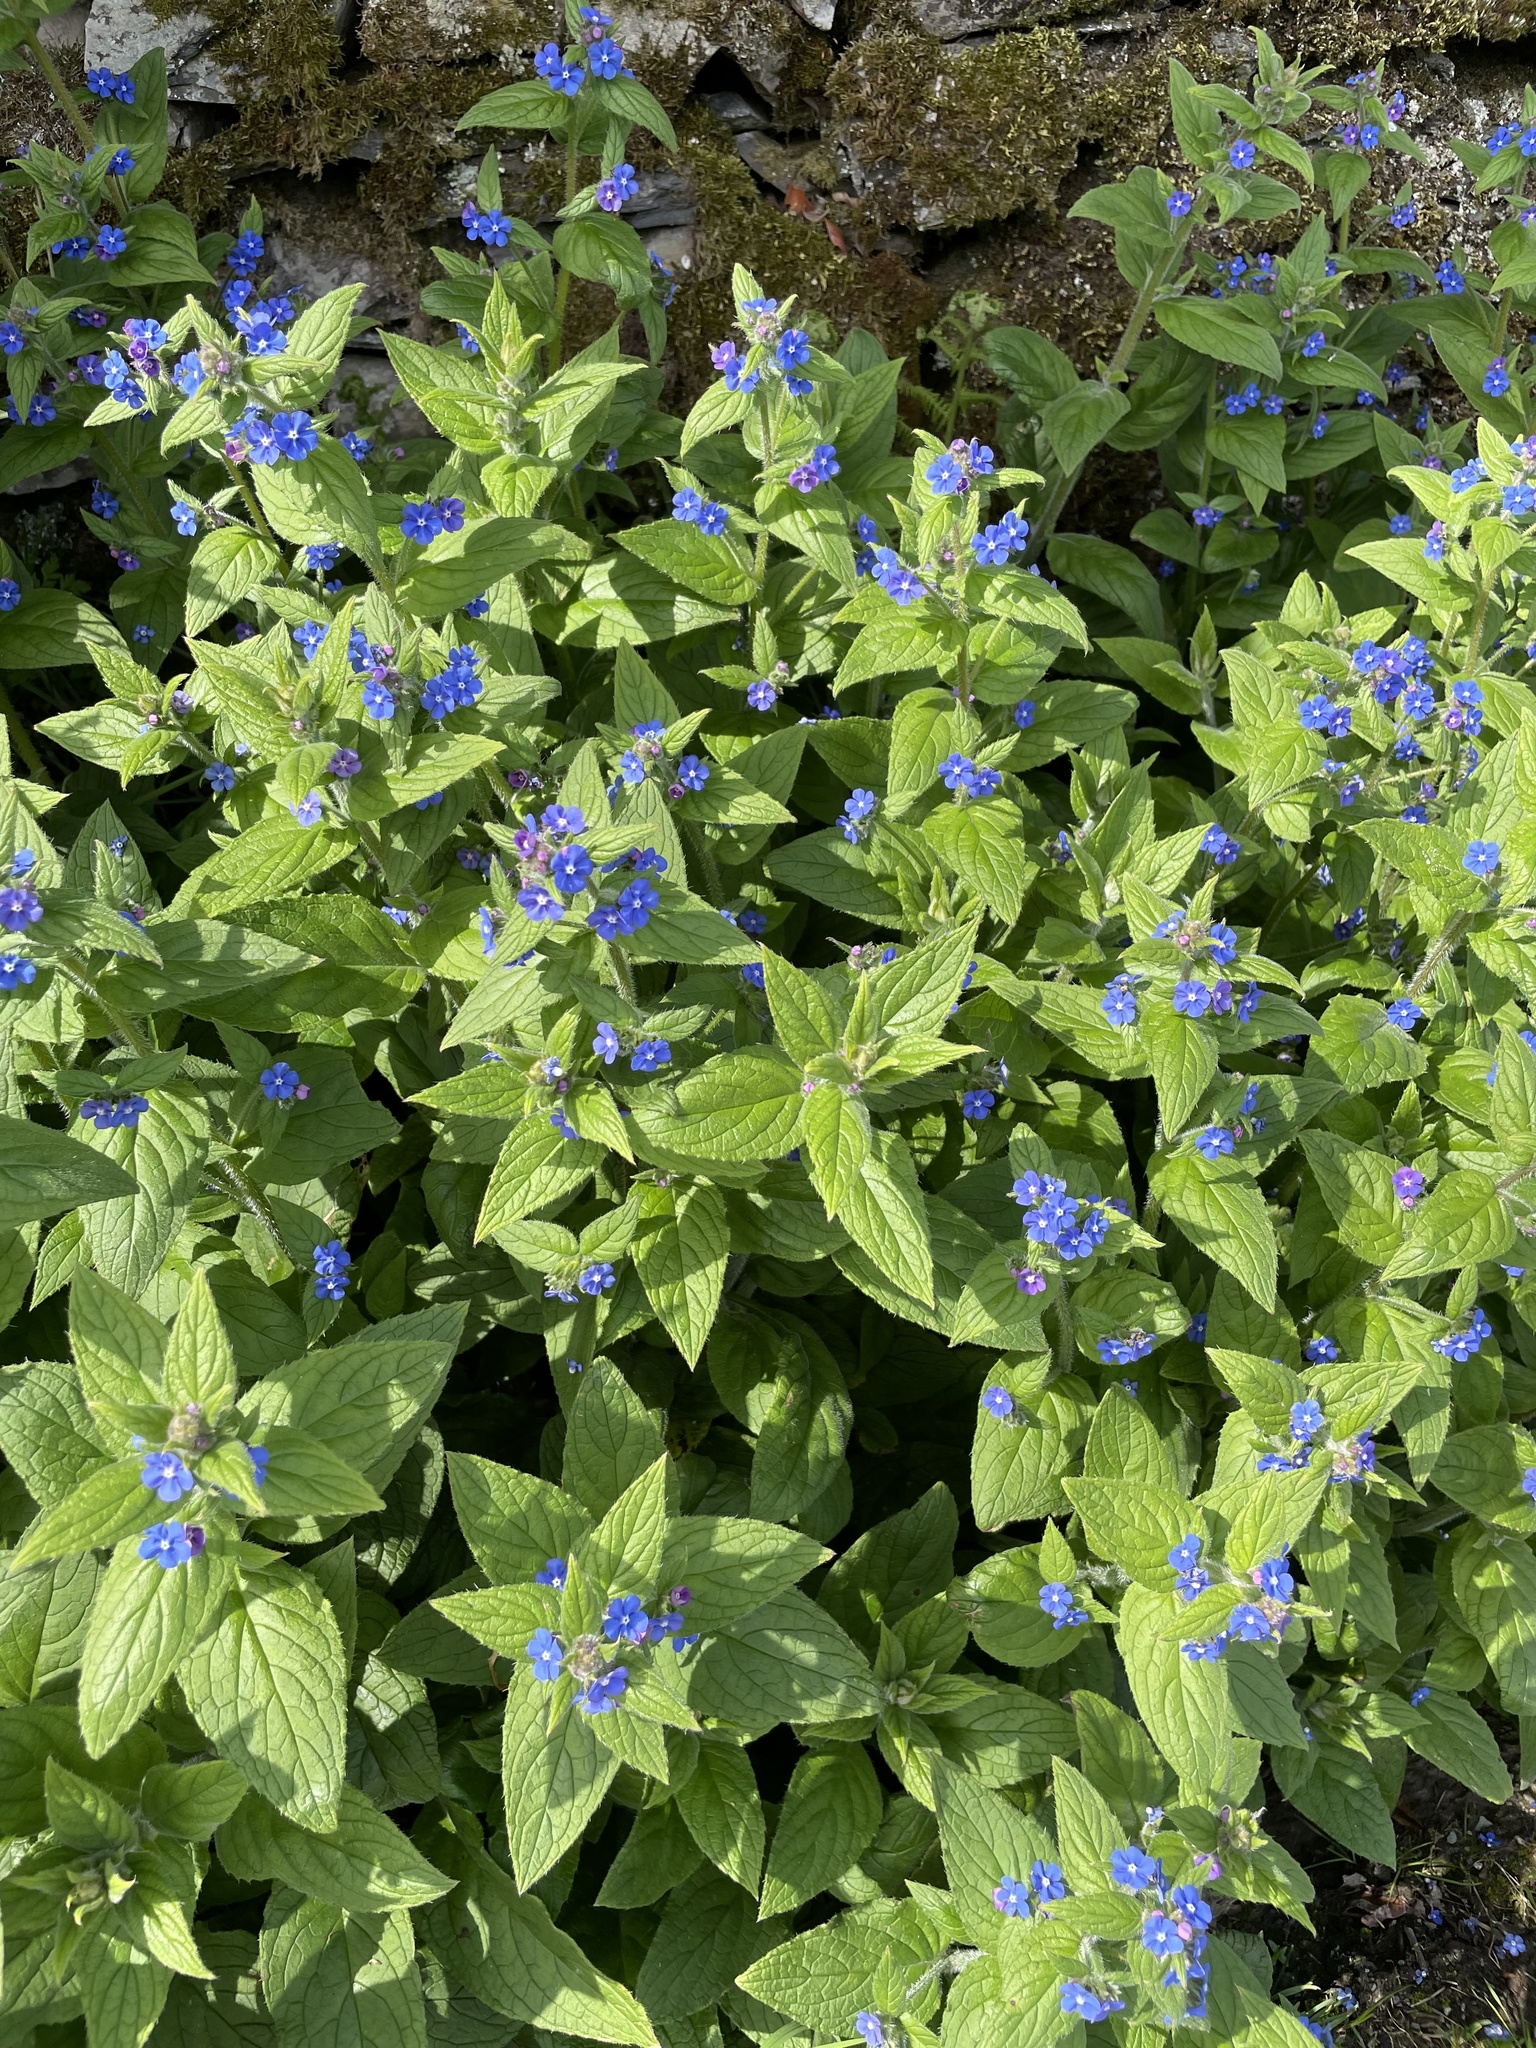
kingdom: Plantae
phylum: Tracheophyta
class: Magnoliopsida
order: Boraginales
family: Boraginaceae
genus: Pentaglottis
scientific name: Pentaglottis sempervirens
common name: Green alkanet
